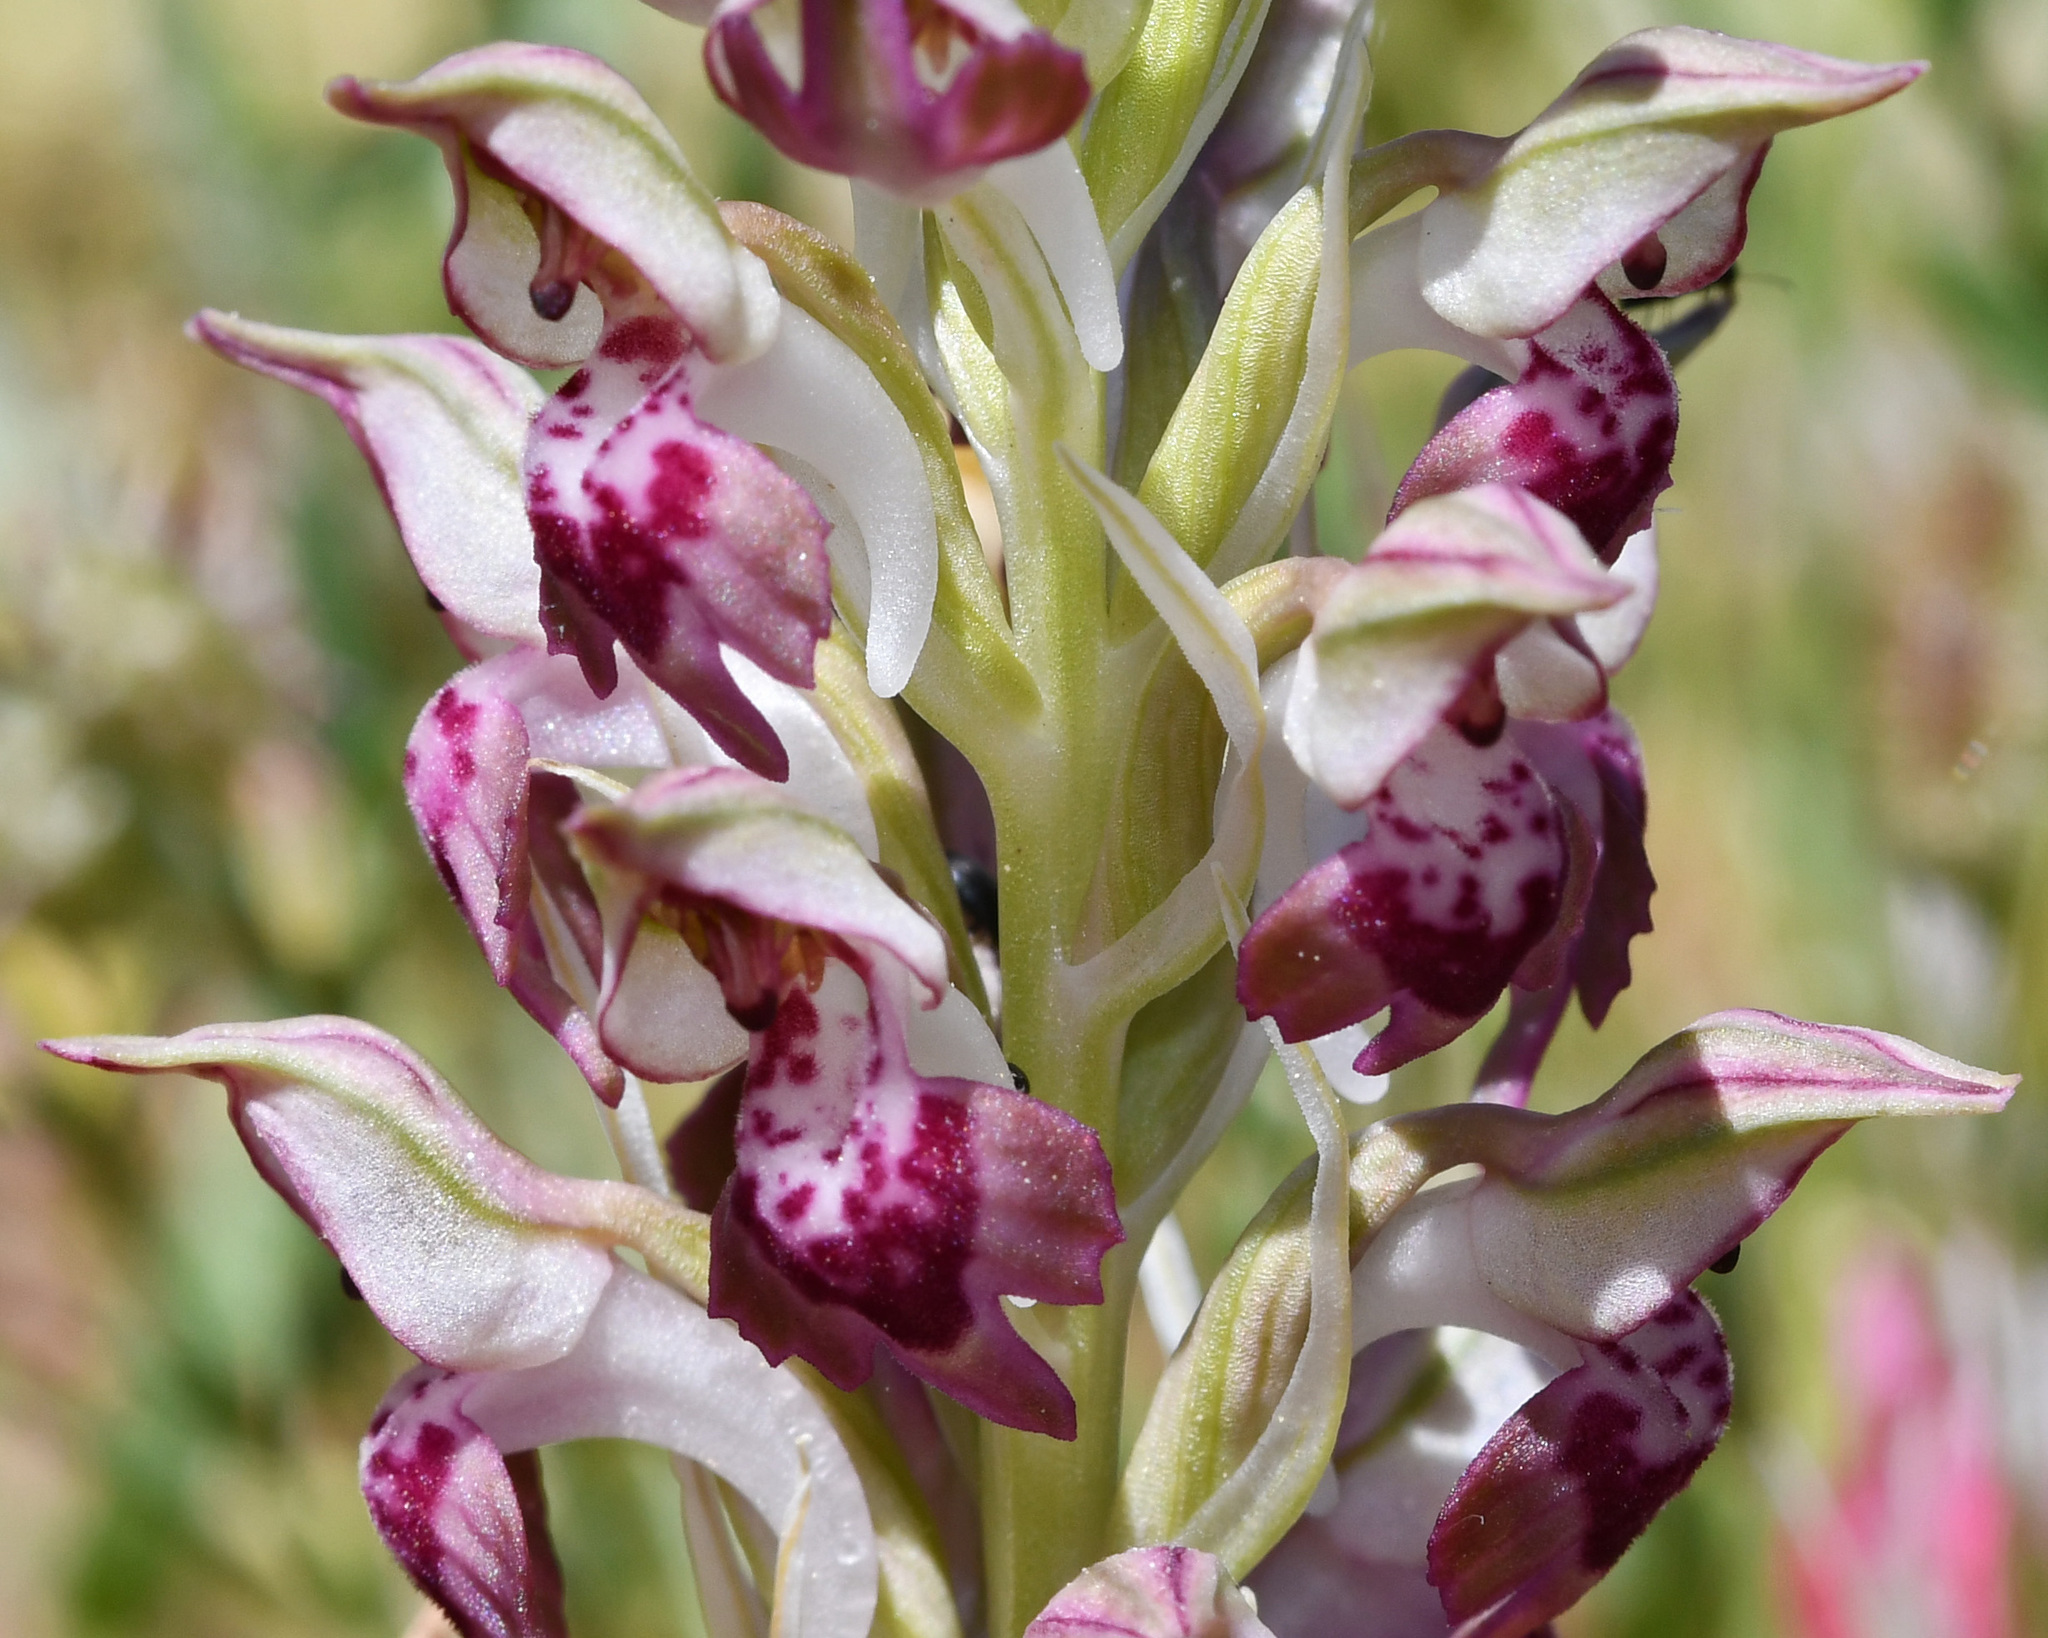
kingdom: Plantae
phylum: Tracheophyta
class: Liliopsida
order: Asparagales
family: Orchidaceae
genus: Anacamptis
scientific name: Anacamptis coriophora
